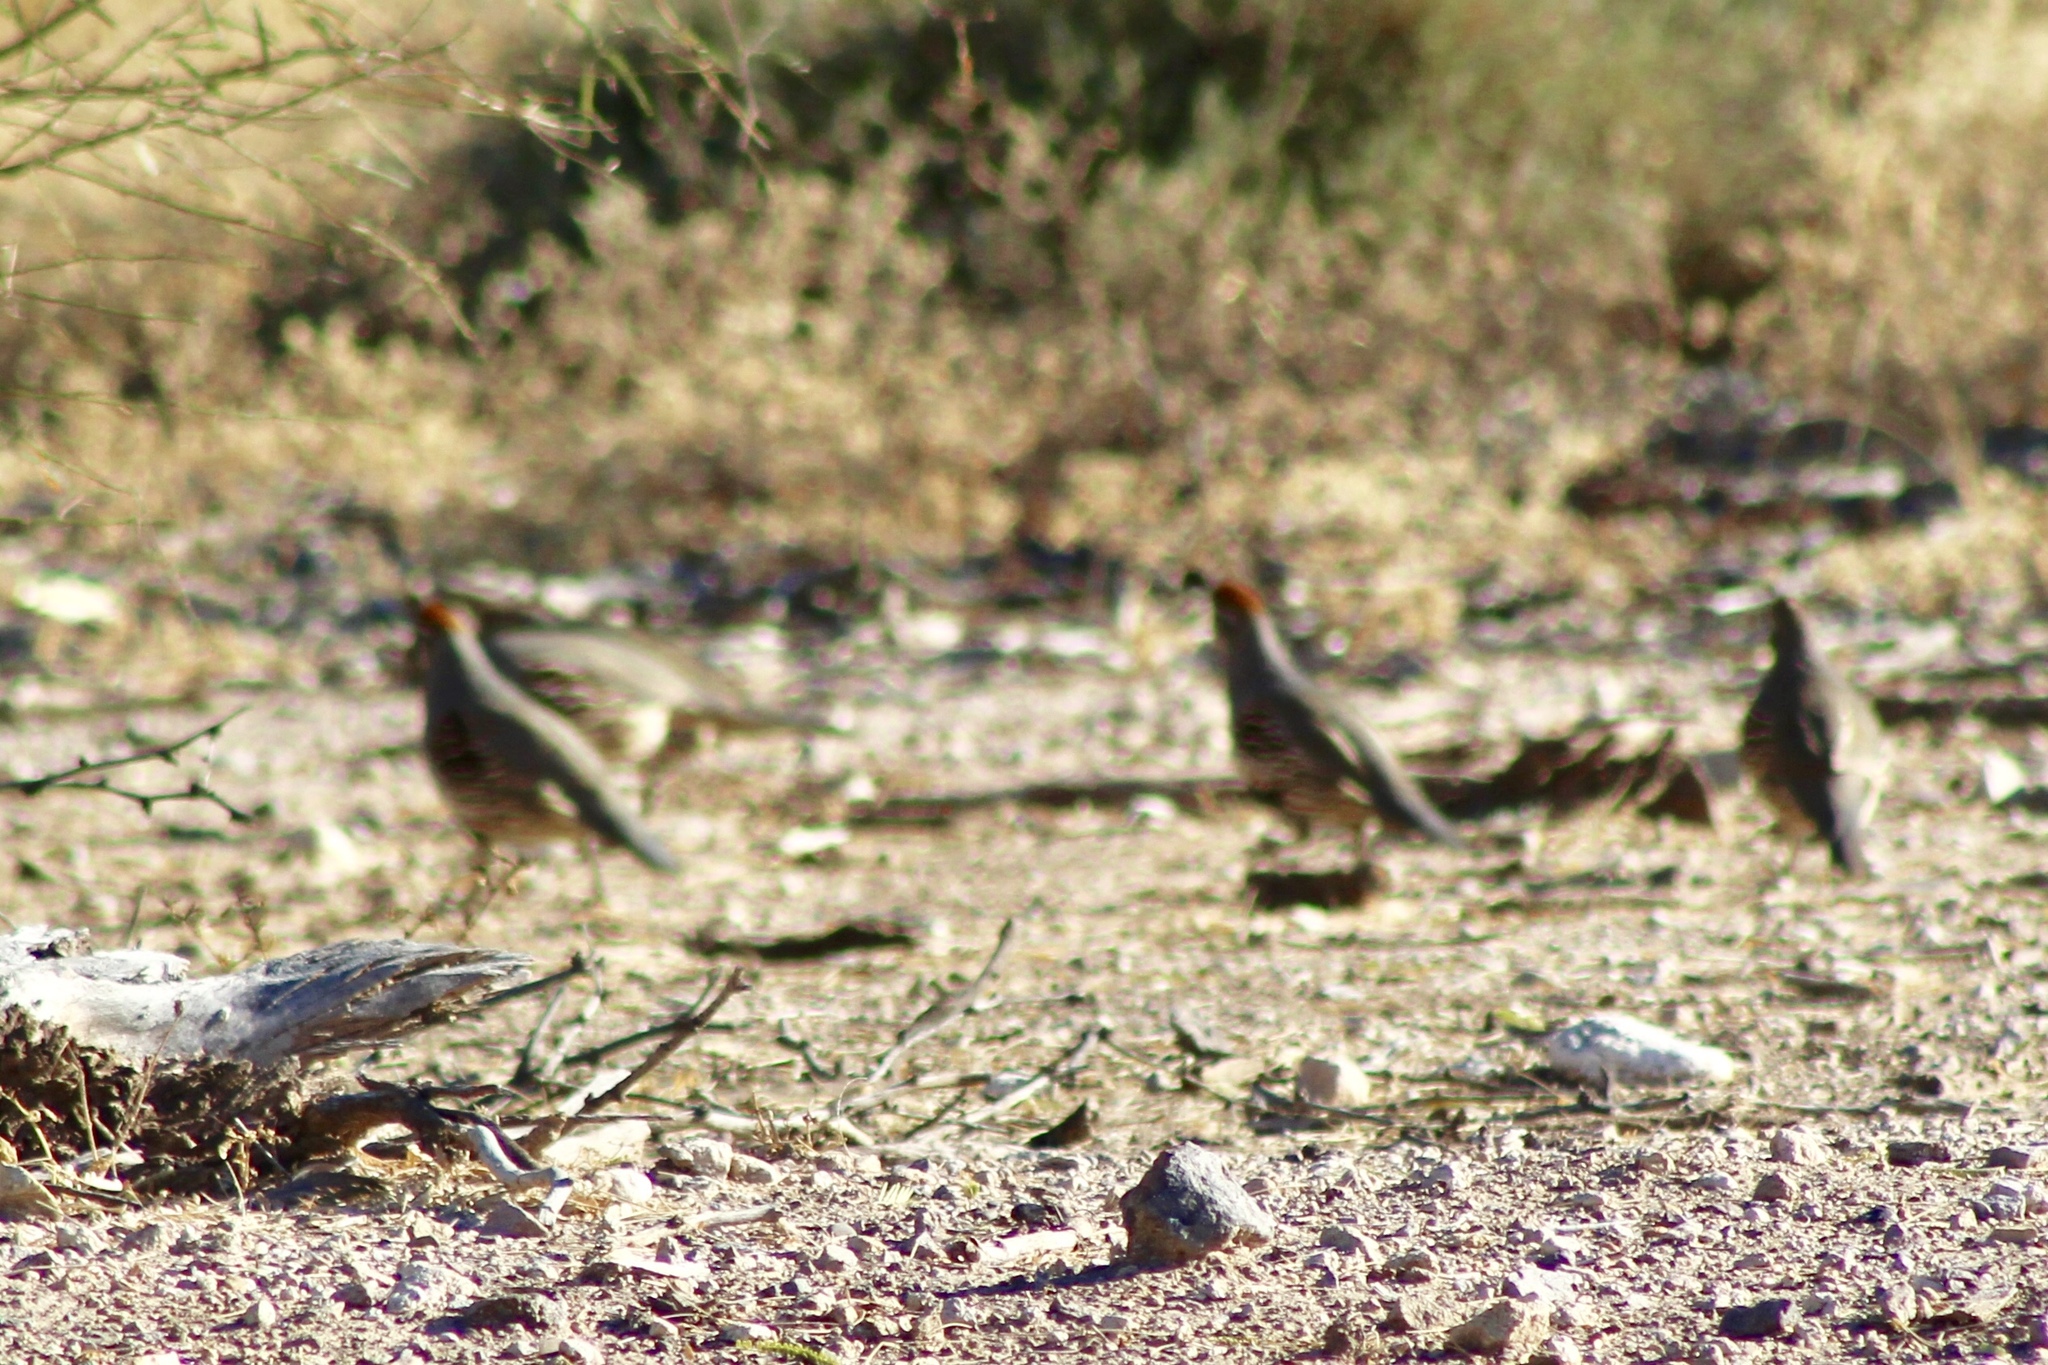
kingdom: Animalia
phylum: Chordata
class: Aves
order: Galliformes
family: Odontophoridae
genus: Callipepla
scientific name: Callipepla gambelii
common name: Gambel's quail
